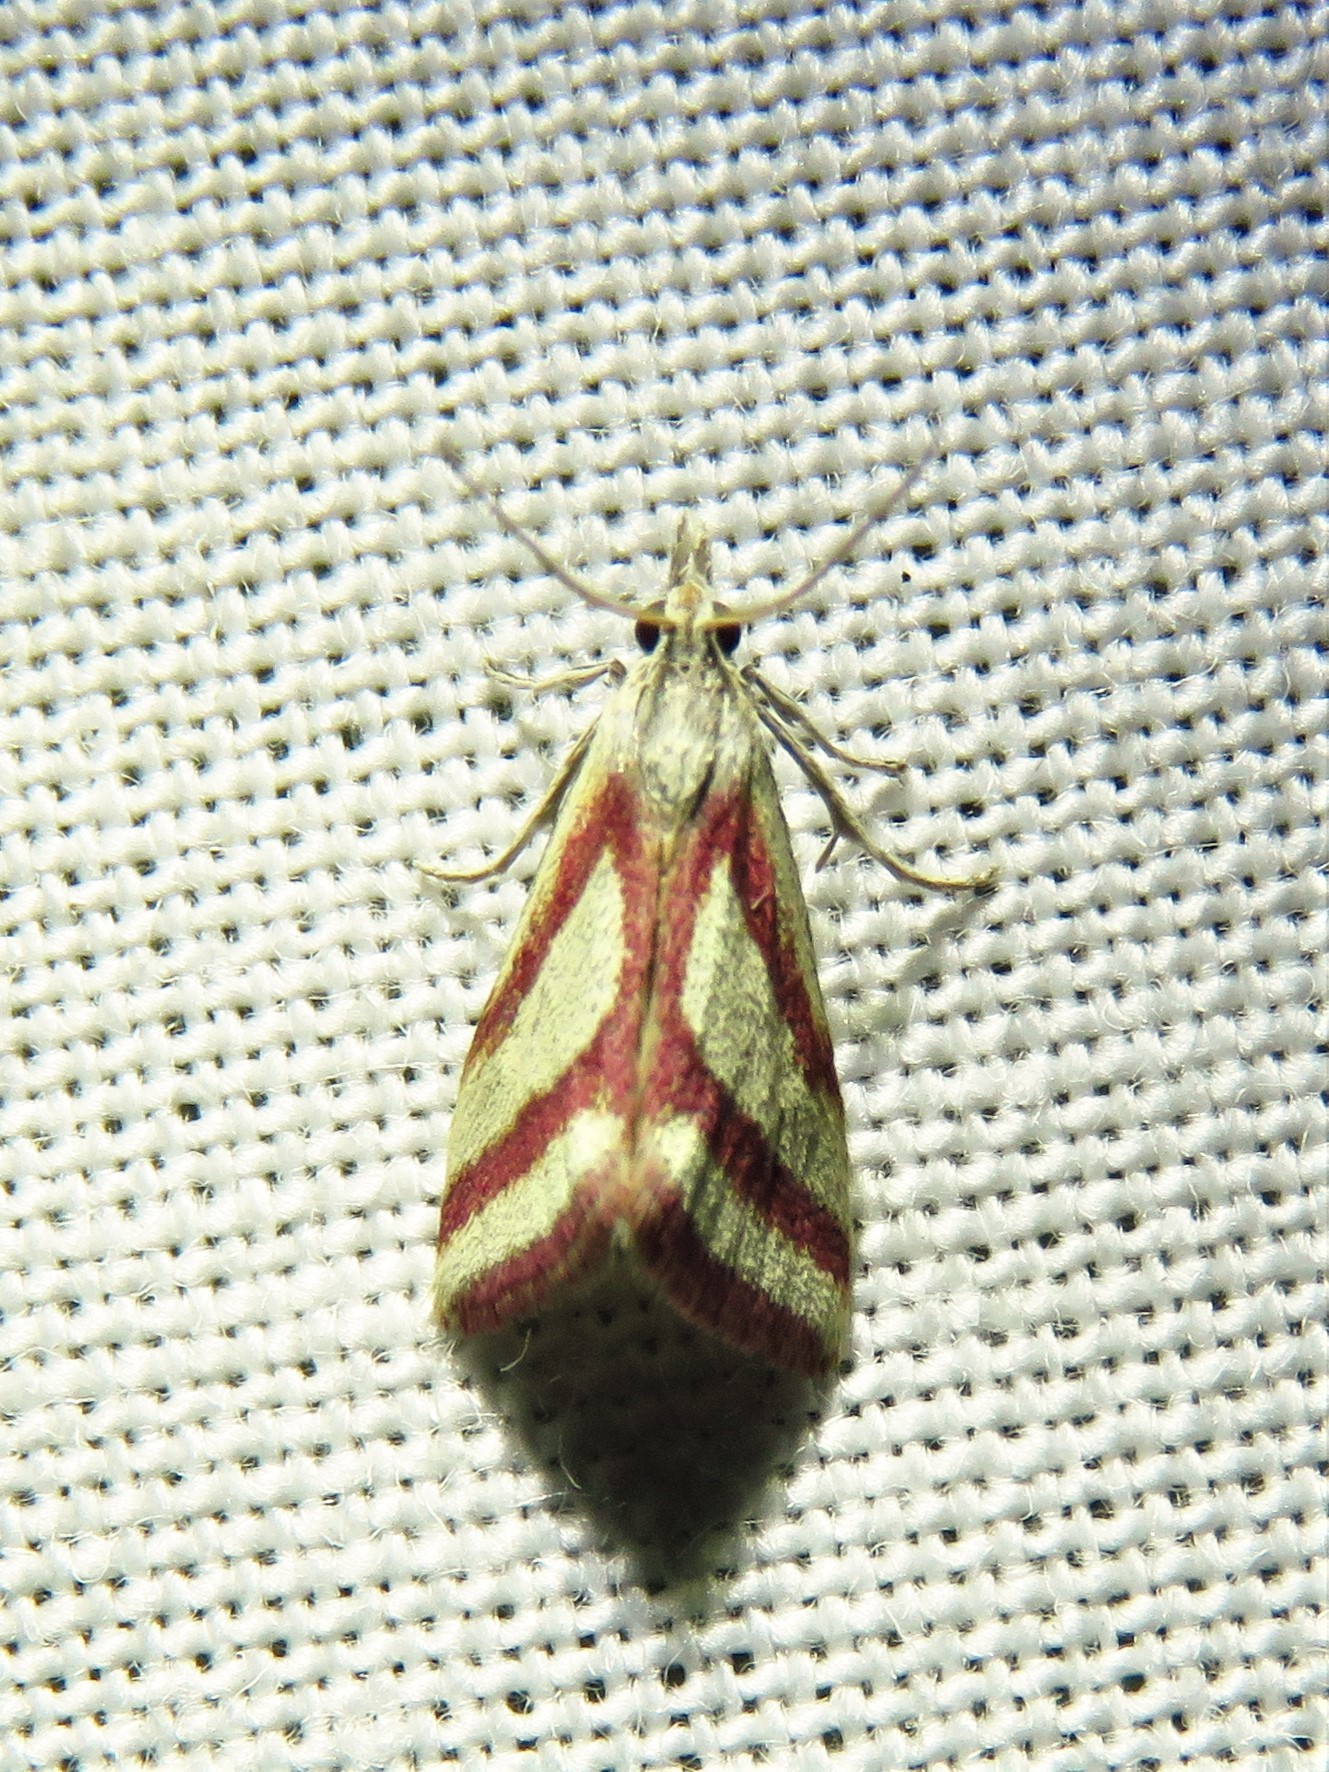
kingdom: Animalia
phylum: Arthropoda
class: Insecta
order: Lepidoptera
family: Crambidae
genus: Microtheoris
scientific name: Microtheoris vibicalis
